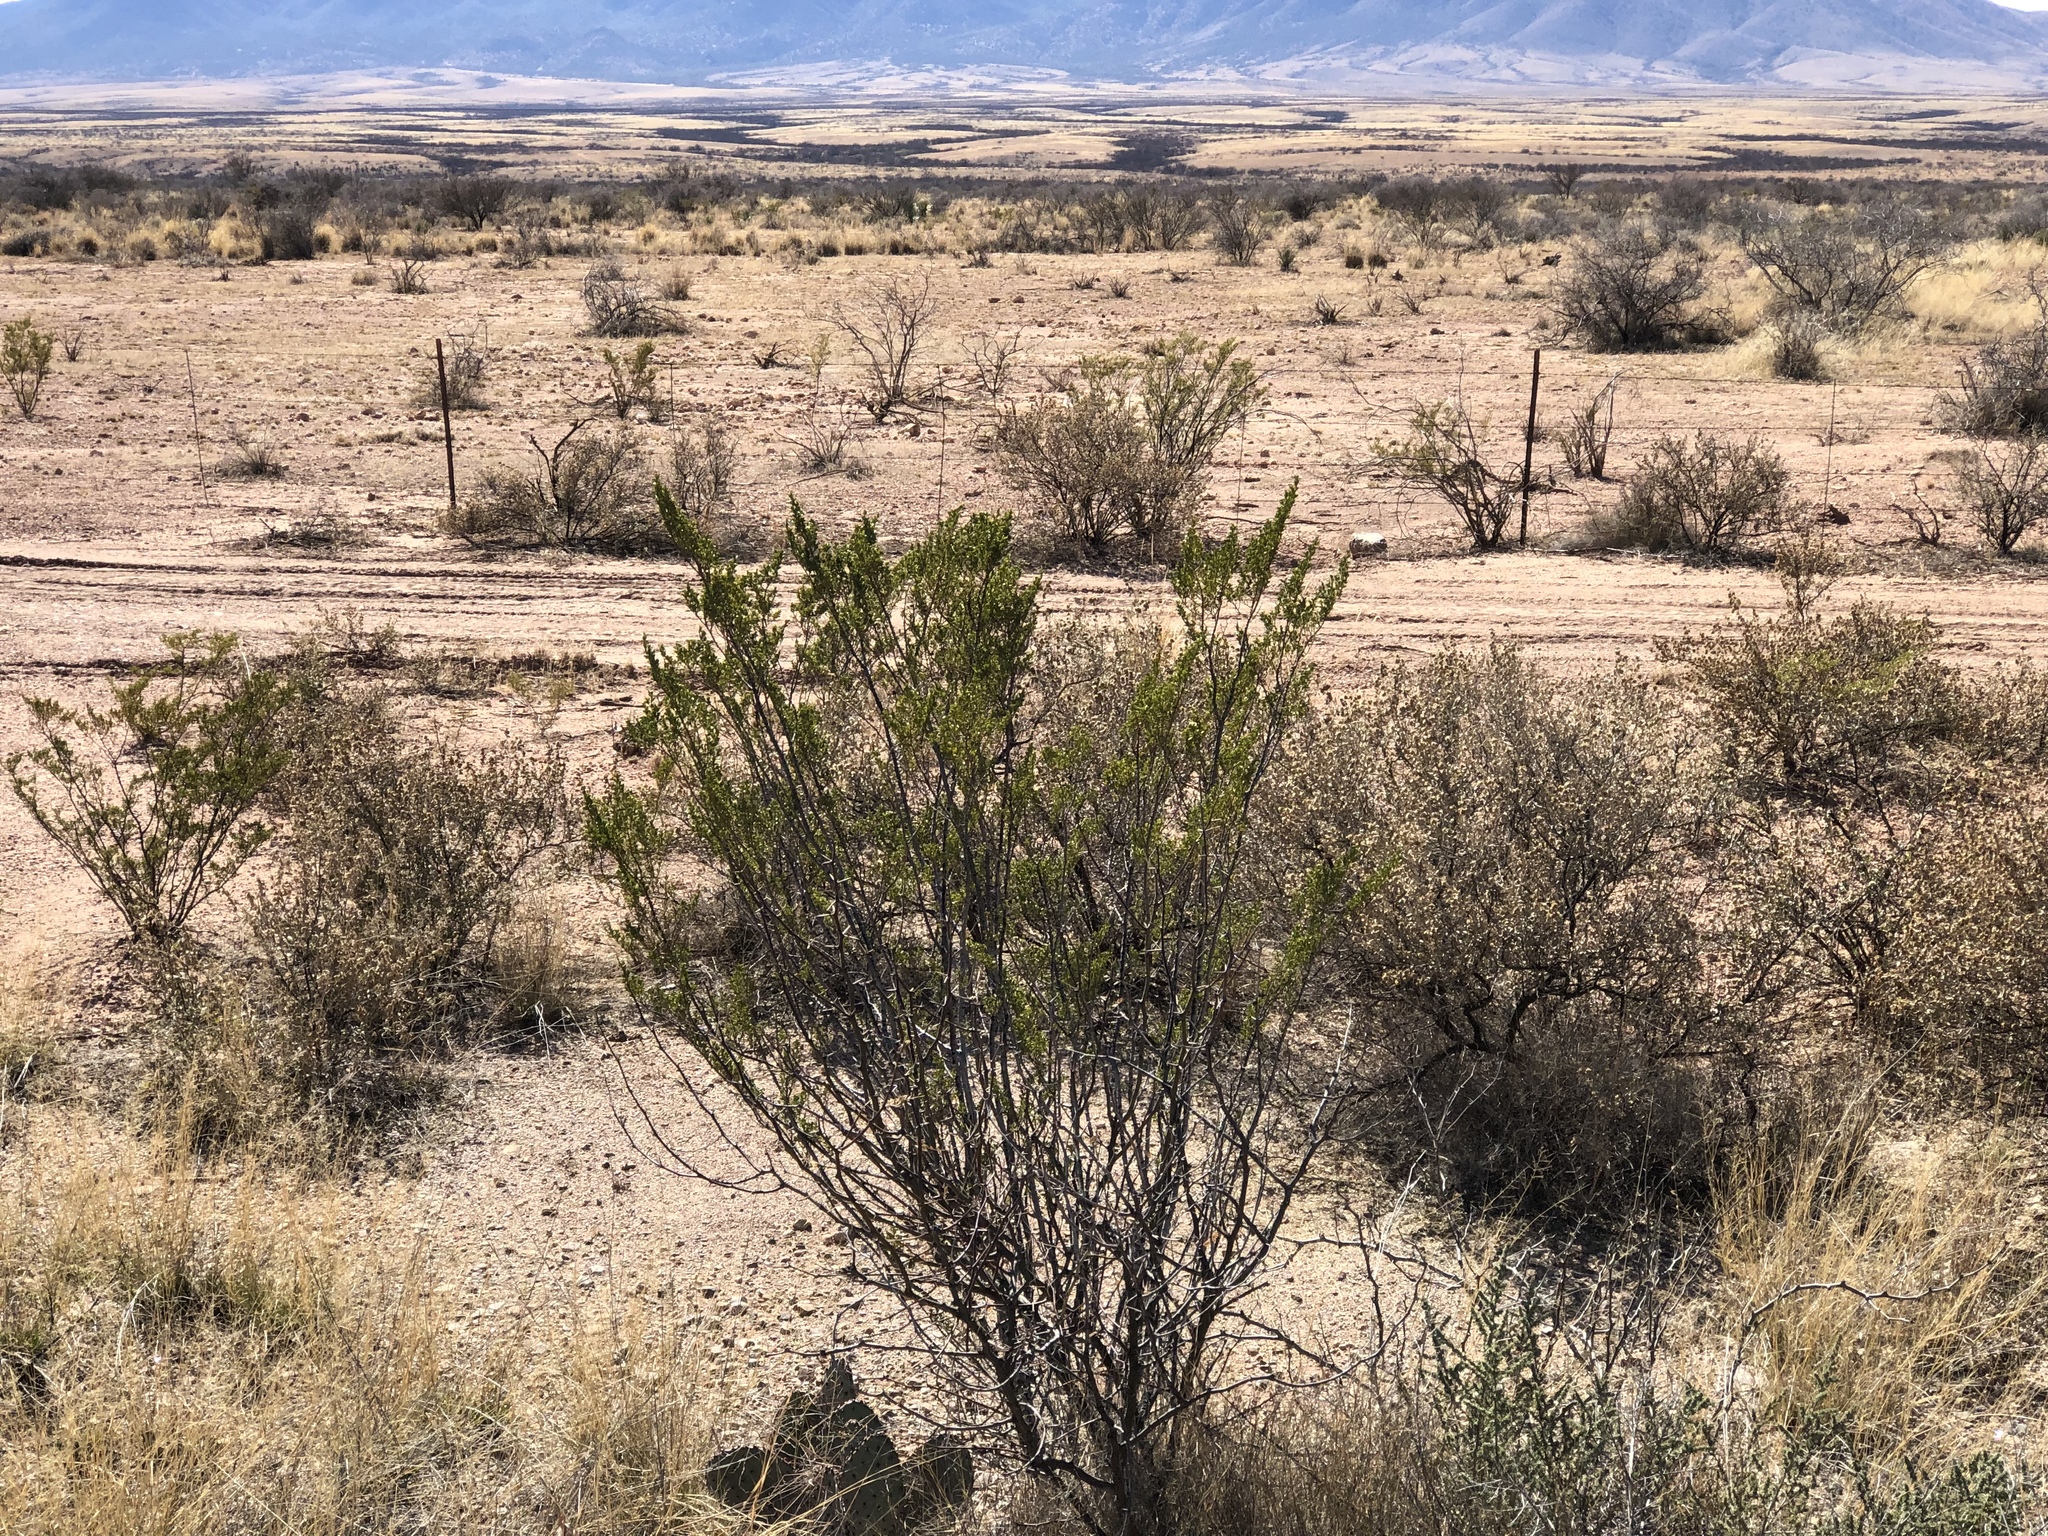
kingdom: Plantae
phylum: Tracheophyta
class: Magnoliopsida
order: Zygophyllales
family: Zygophyllaceae
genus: Larrea
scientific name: Larrea tridentata
